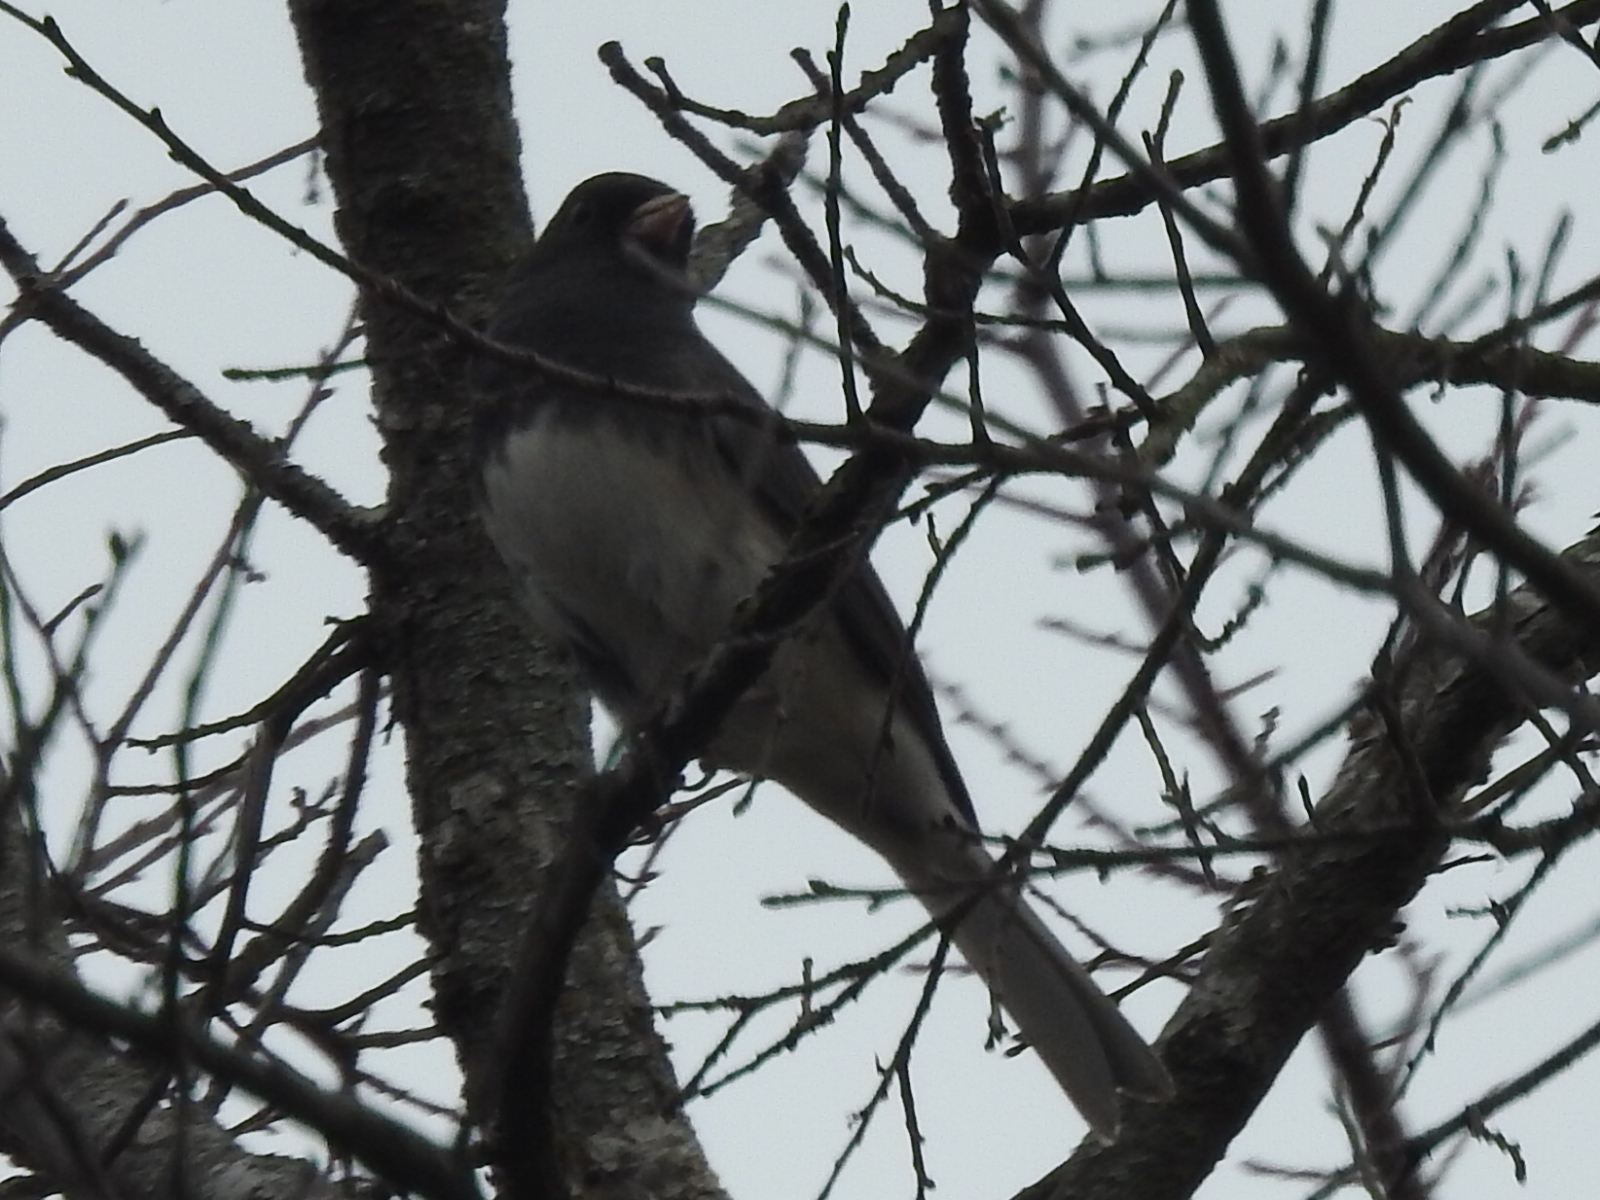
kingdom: Animalia
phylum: Chordata
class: Aves
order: Passeriformes
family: Passerellidae
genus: Junco
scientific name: Junco hyemalis
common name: Dark-eyed junco
